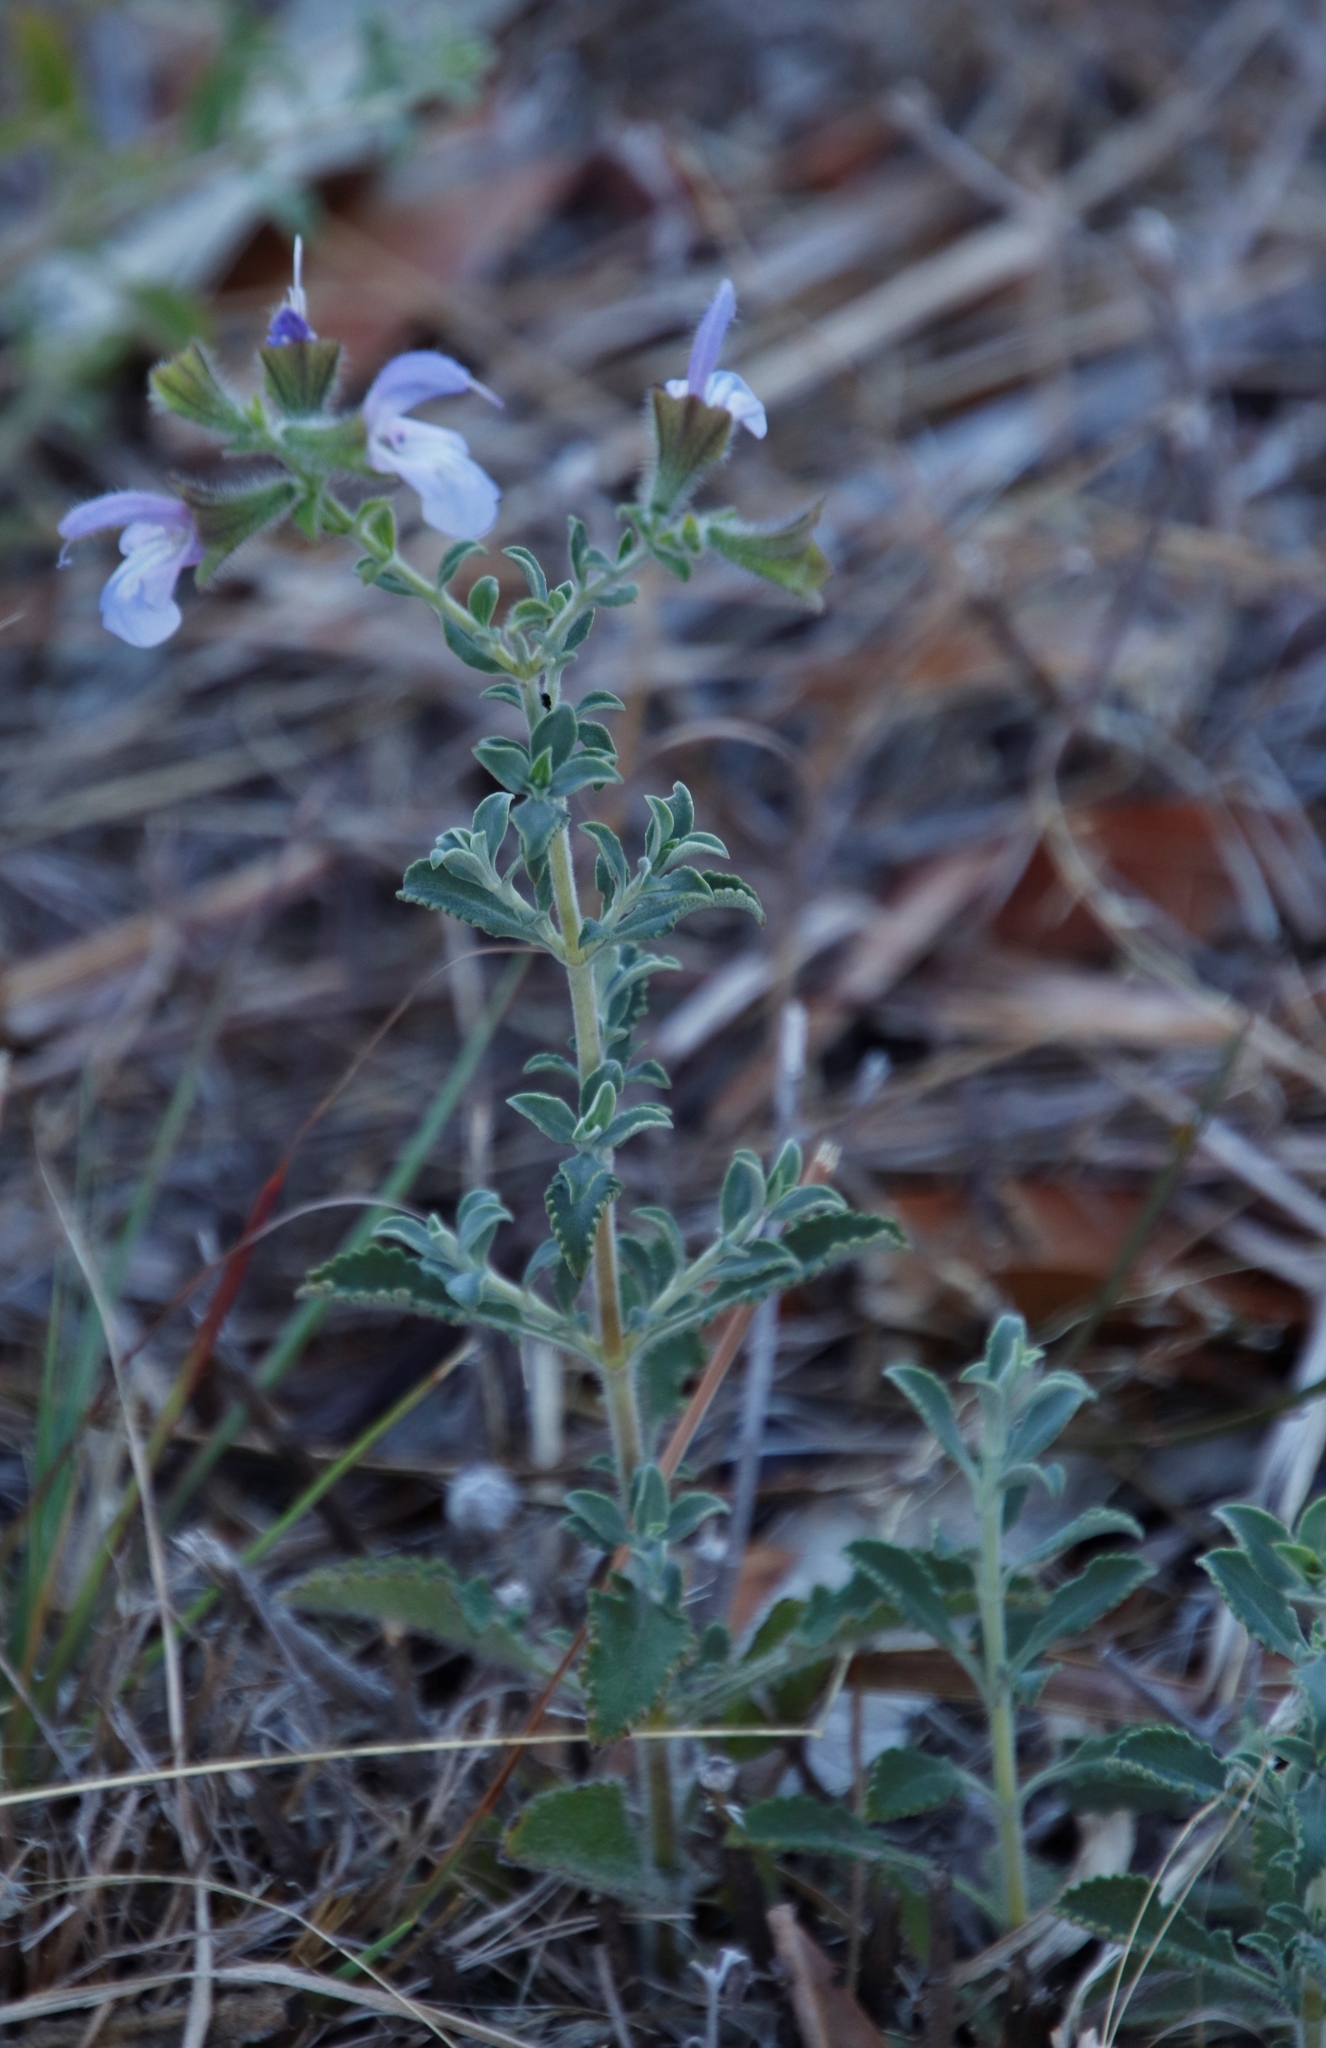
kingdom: Plantae
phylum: Tracheophyta
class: Magnoliopsida
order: Lamiales
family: Lamiaceae
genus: Salvia
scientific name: Salvia africana
